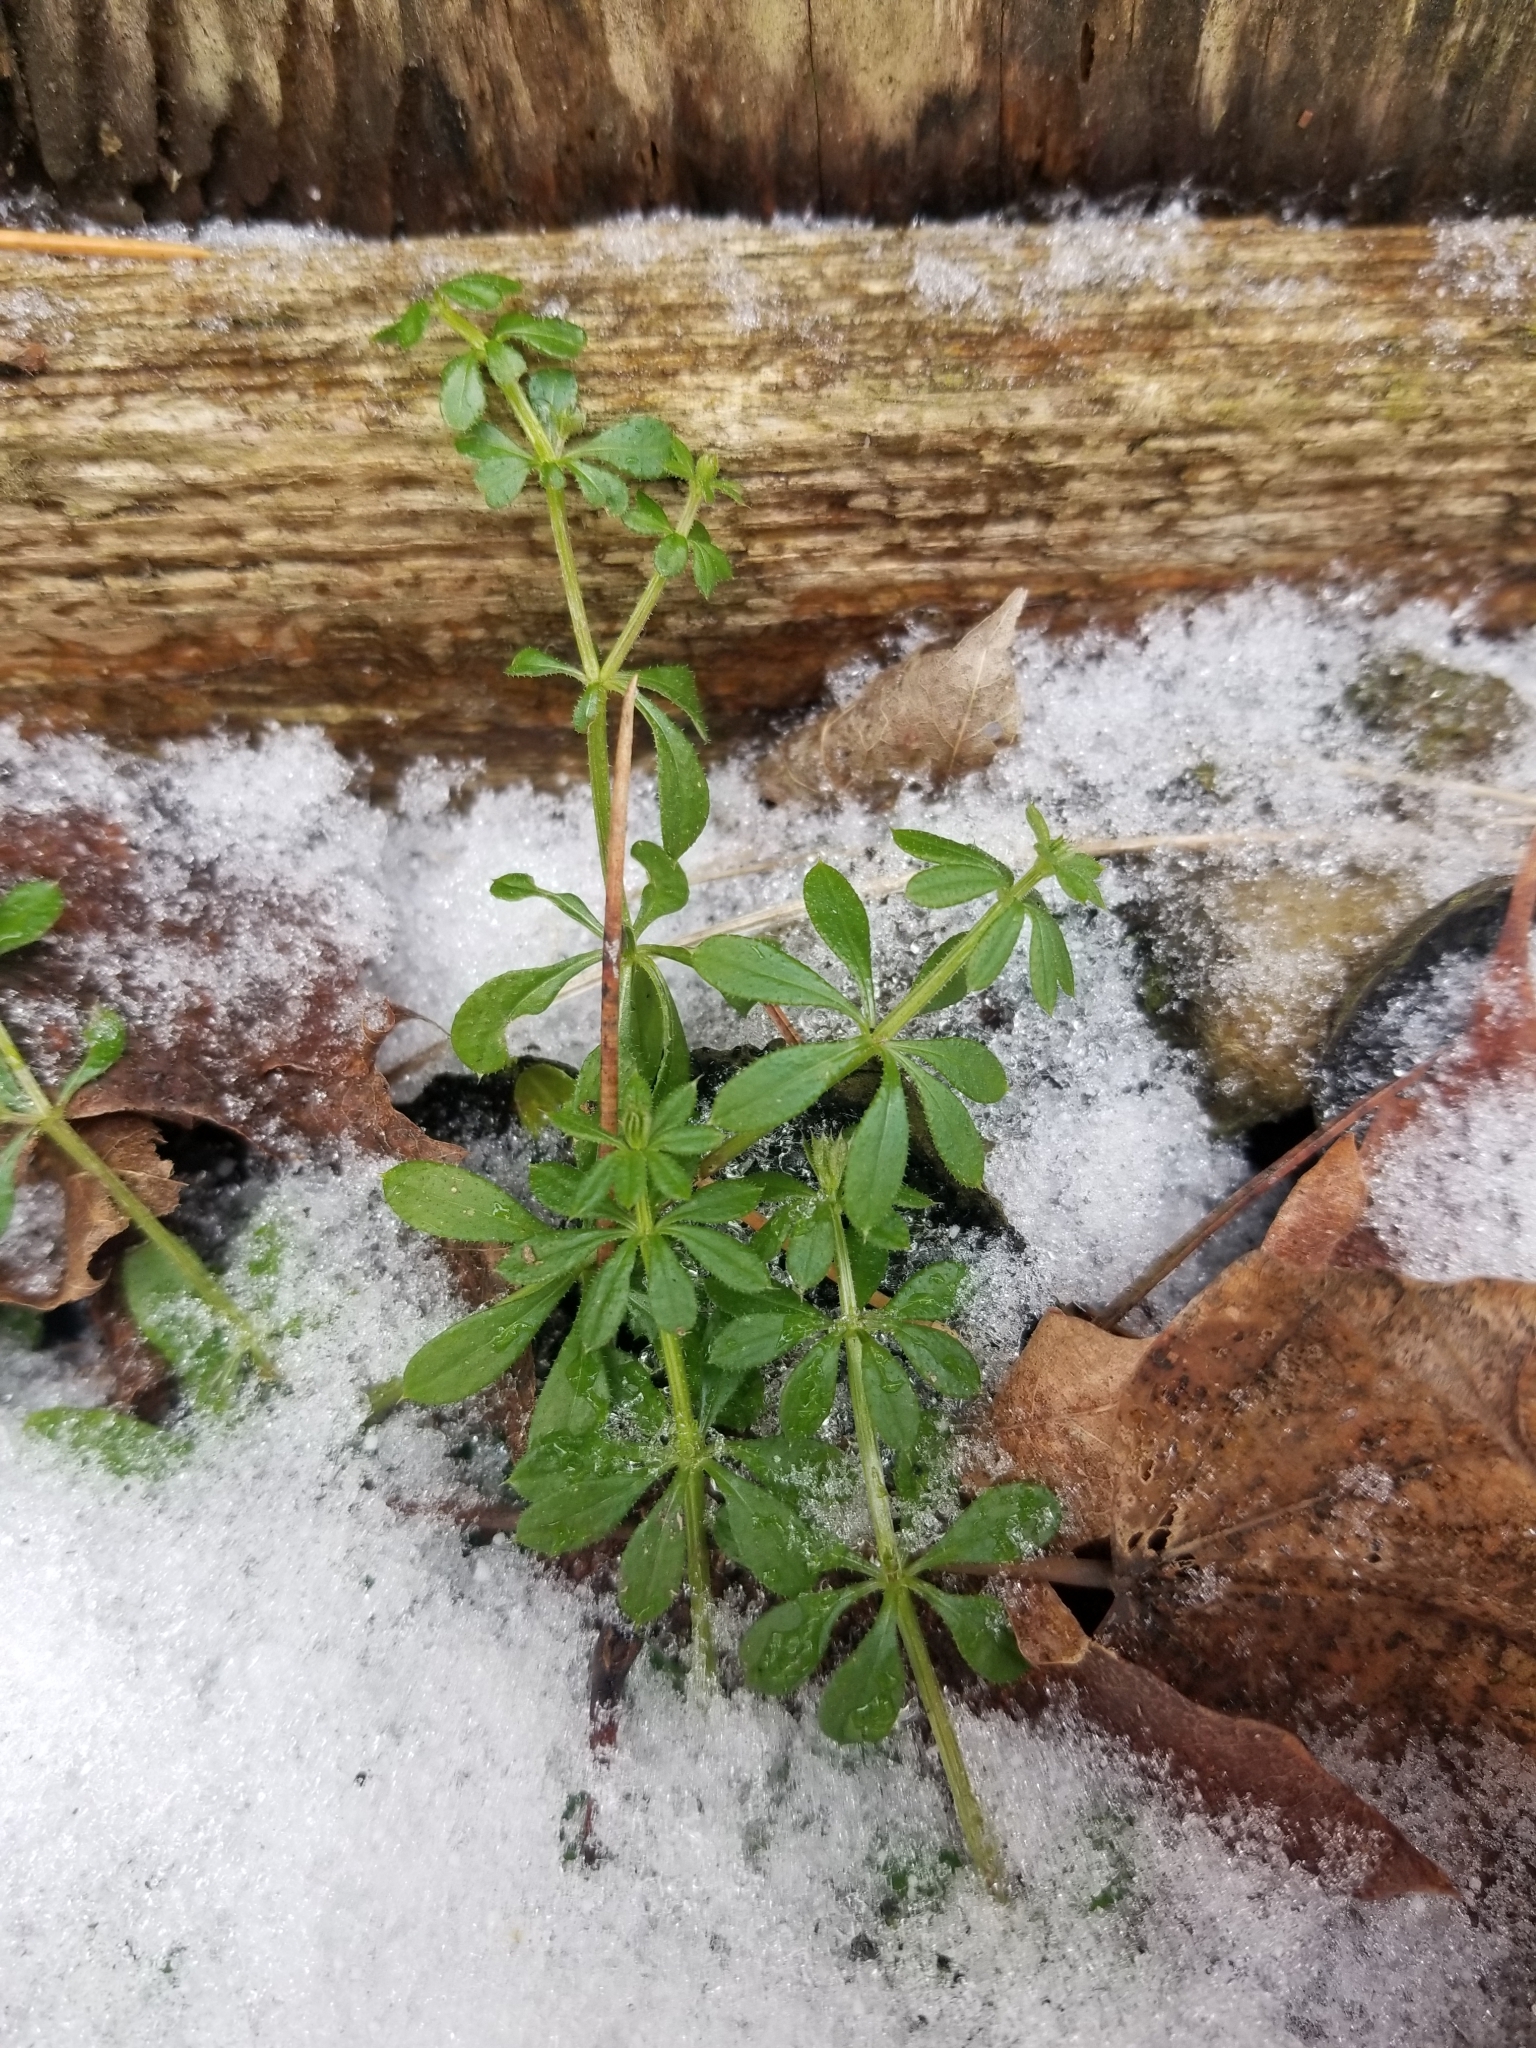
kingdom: Plantae
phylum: Tracheophyta
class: Magnoliopsida
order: Gentianales
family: Rubiaceae
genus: Galium
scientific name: Galium aparine
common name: Cleavers
